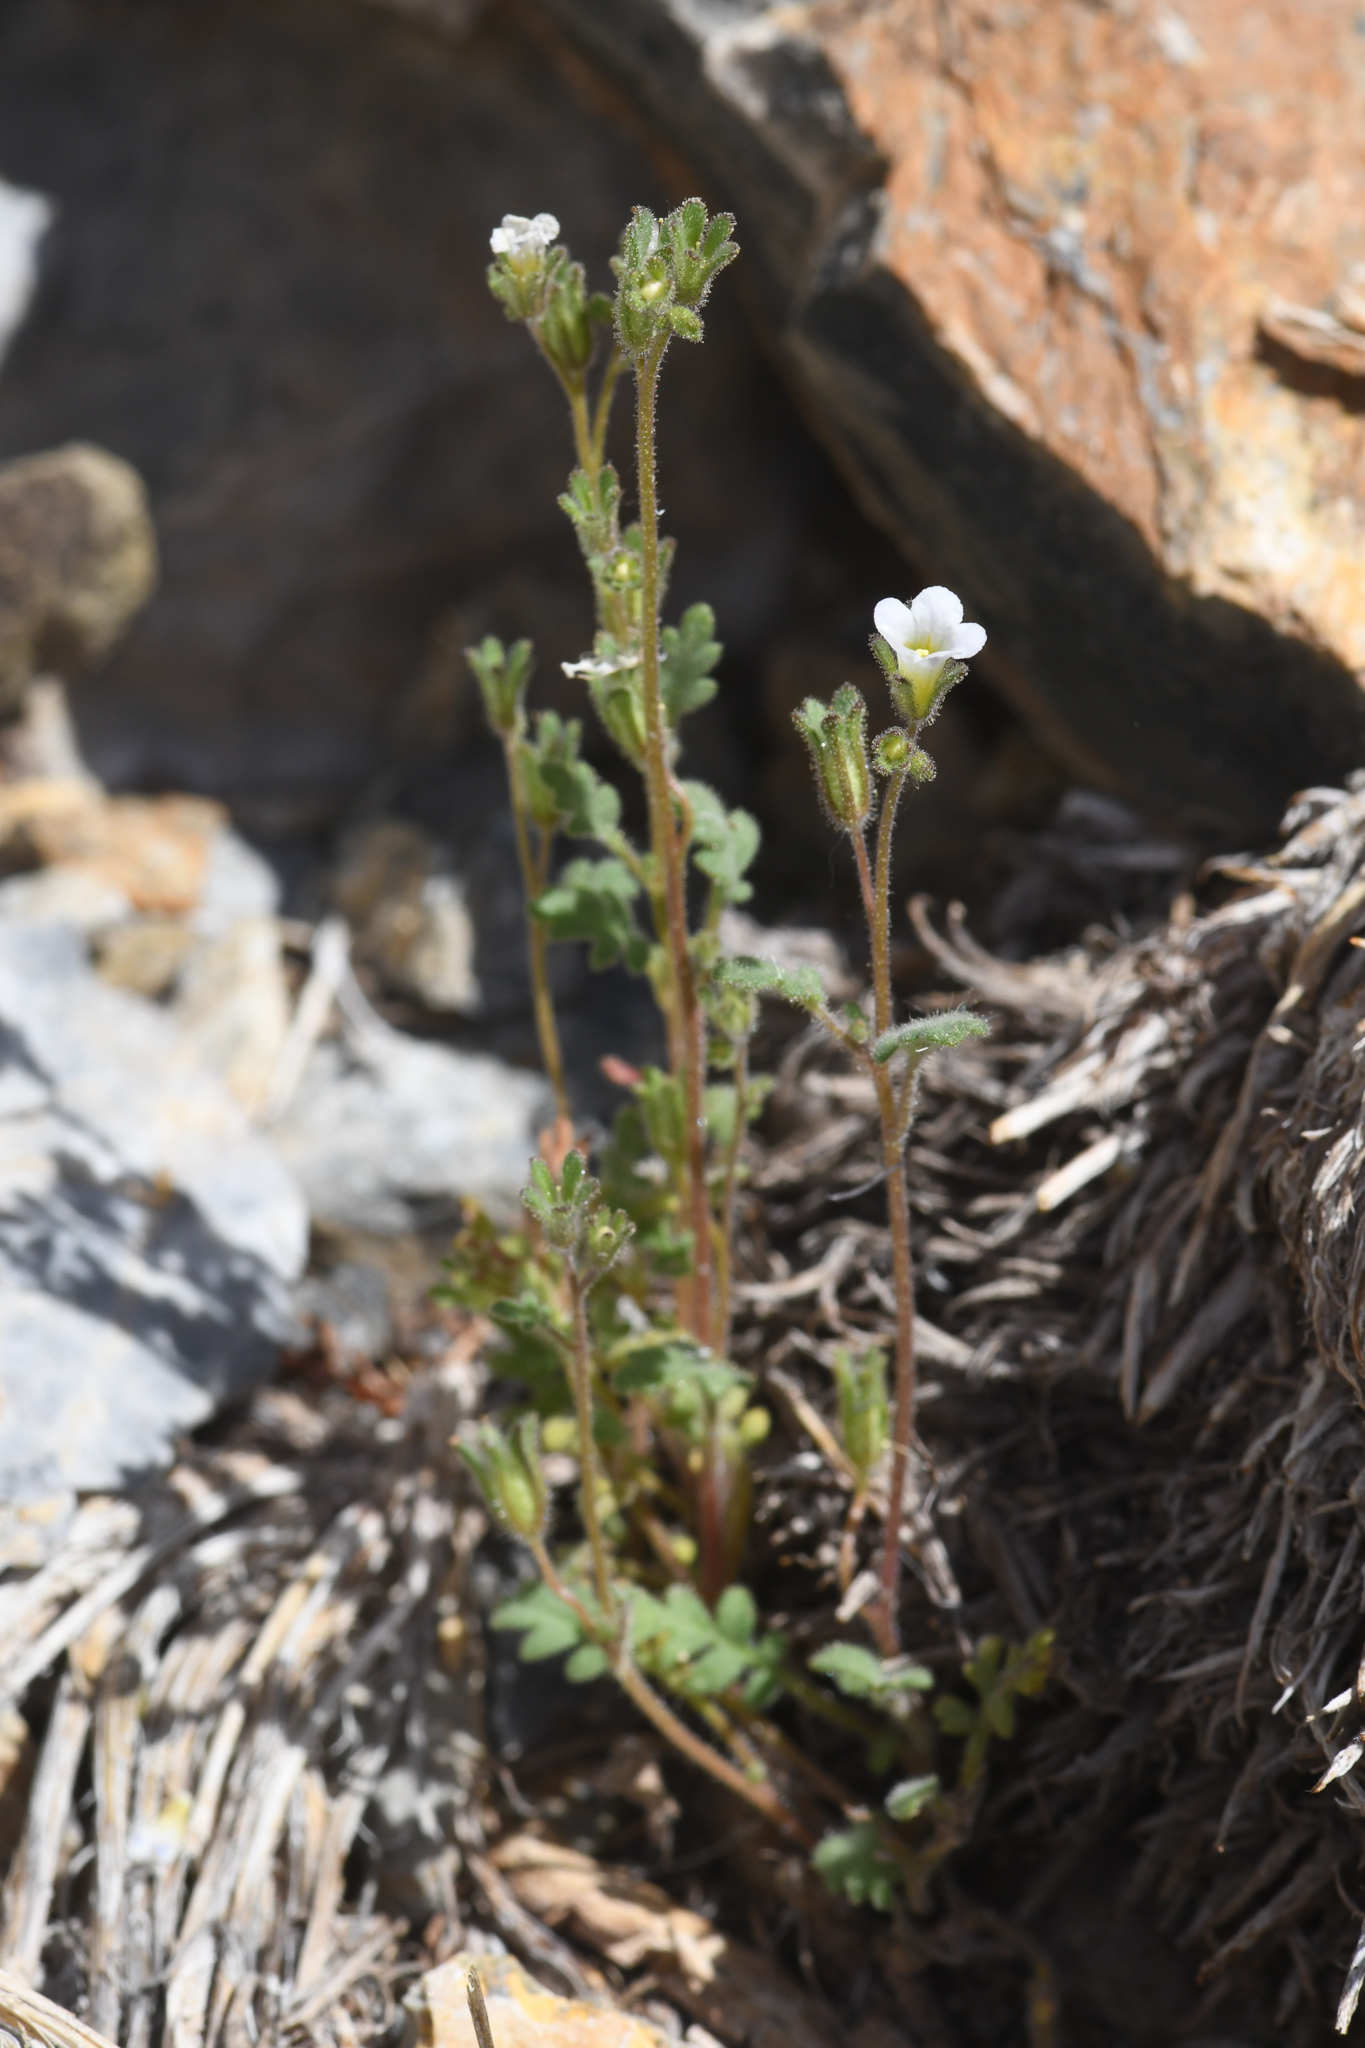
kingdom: Plantae
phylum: Tracheophyta
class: Magnoliopsida
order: Boraginales
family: Hydrophyllaceae
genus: Phacelia
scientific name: Phacelia affinis
